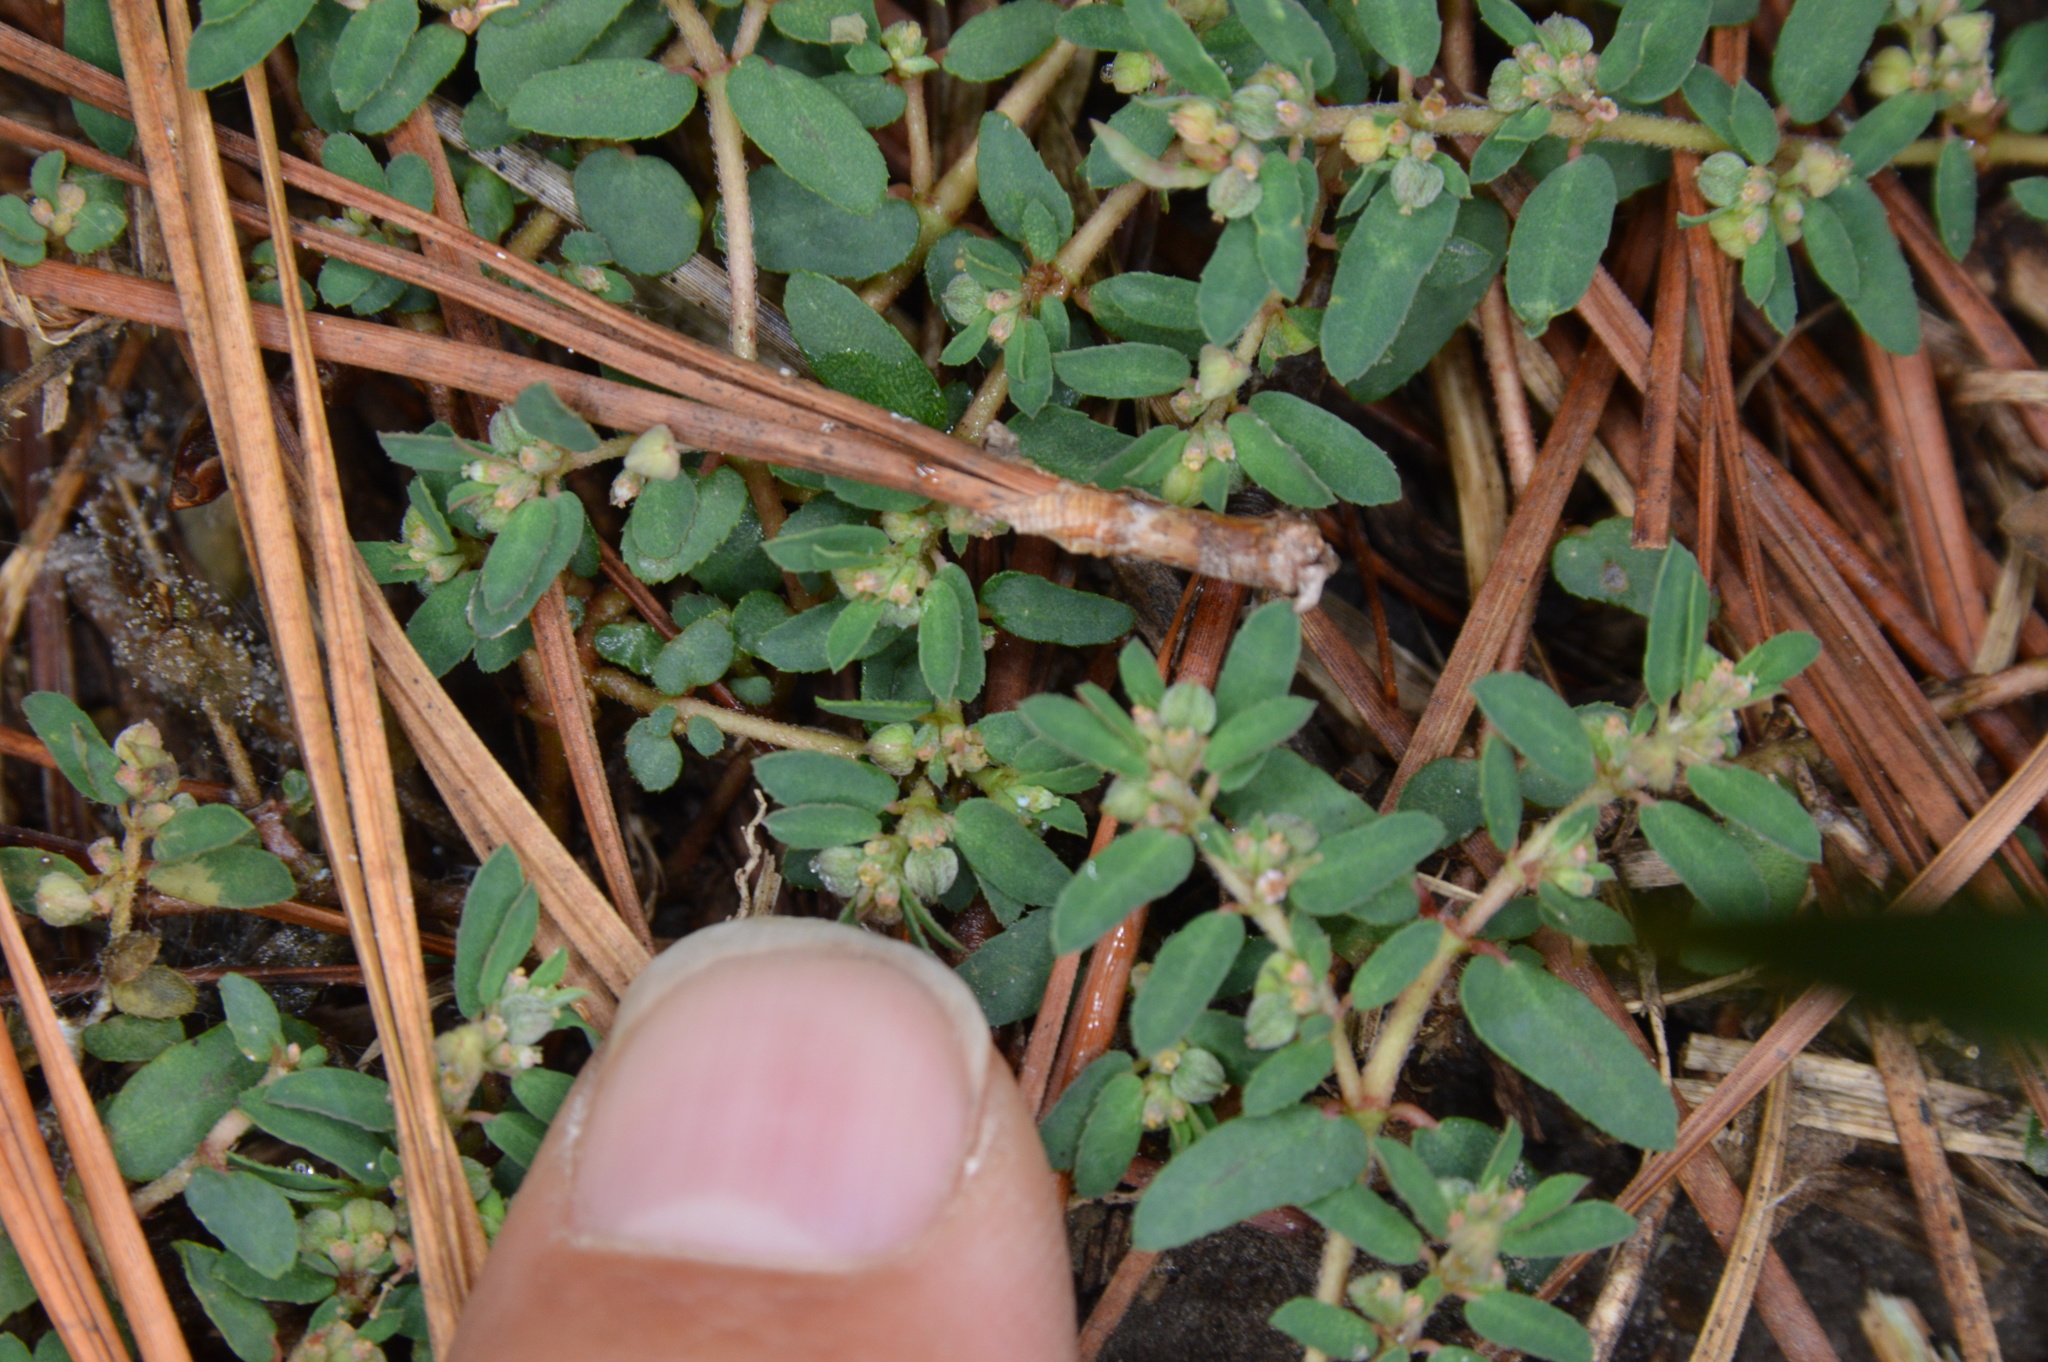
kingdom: Plantae
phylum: Tracheophyta
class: Magnoliopsida
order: Malpighiales
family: Euphorbiaceae
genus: Euphorbia
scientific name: Euphorbia maculata
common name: Spotted spurge
